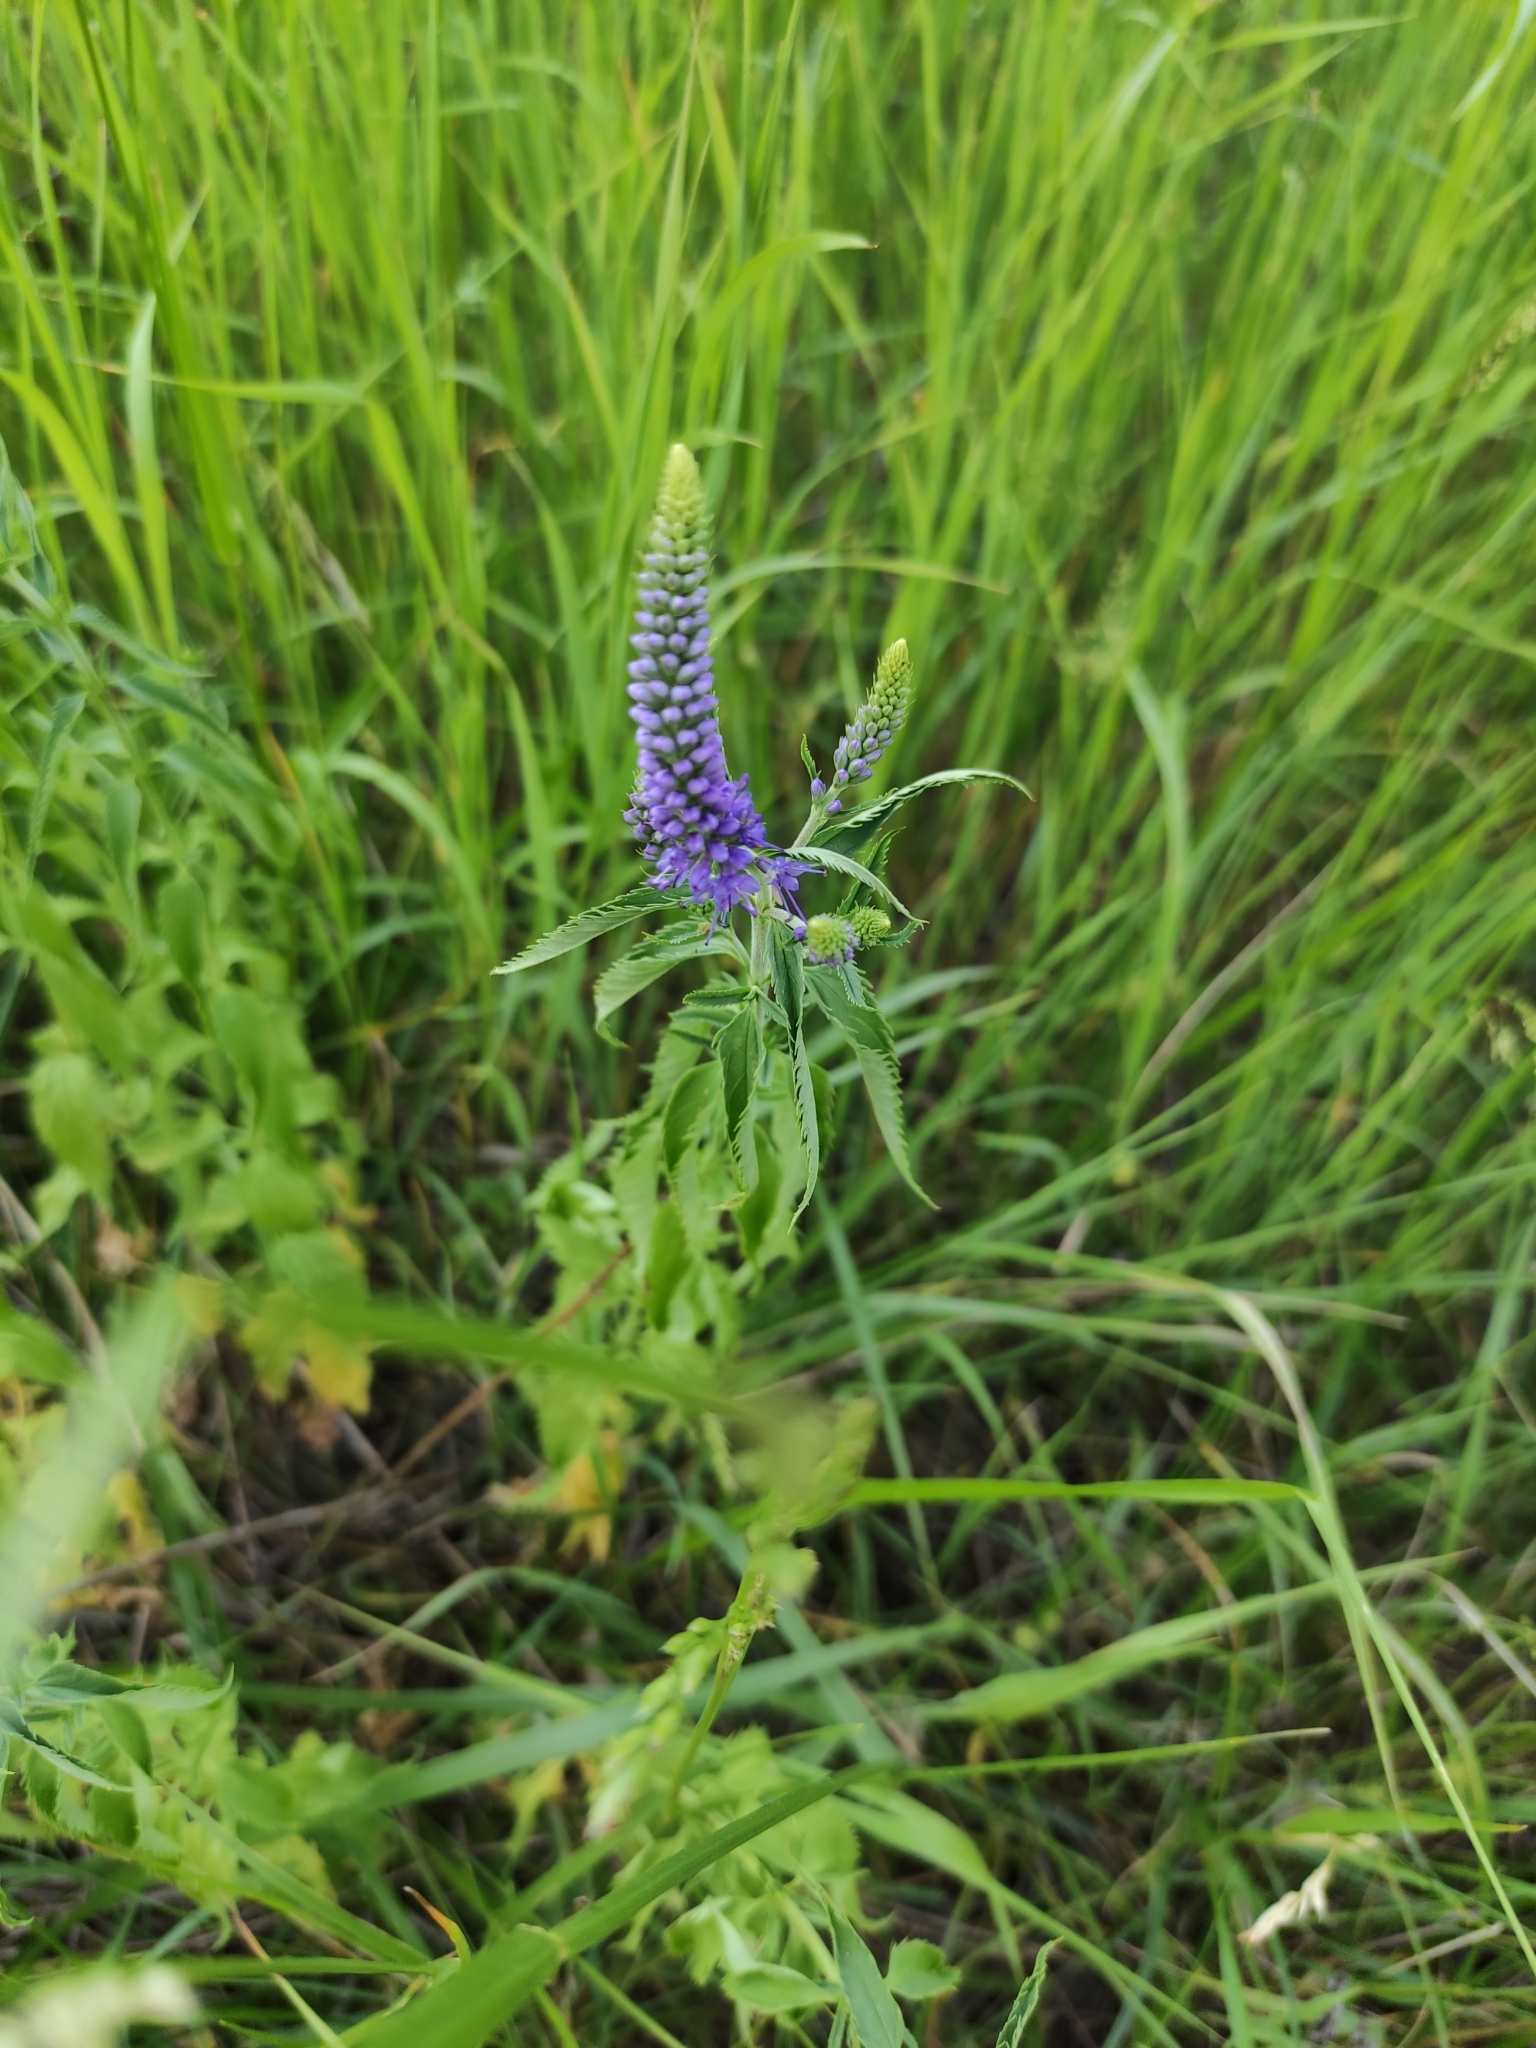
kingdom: Plantae
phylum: Tracheophyta
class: Magnoliopsida
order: Lamiales
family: Plantaginaceae
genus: Veronica
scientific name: Veronica longifolia
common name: Garden speedwell
